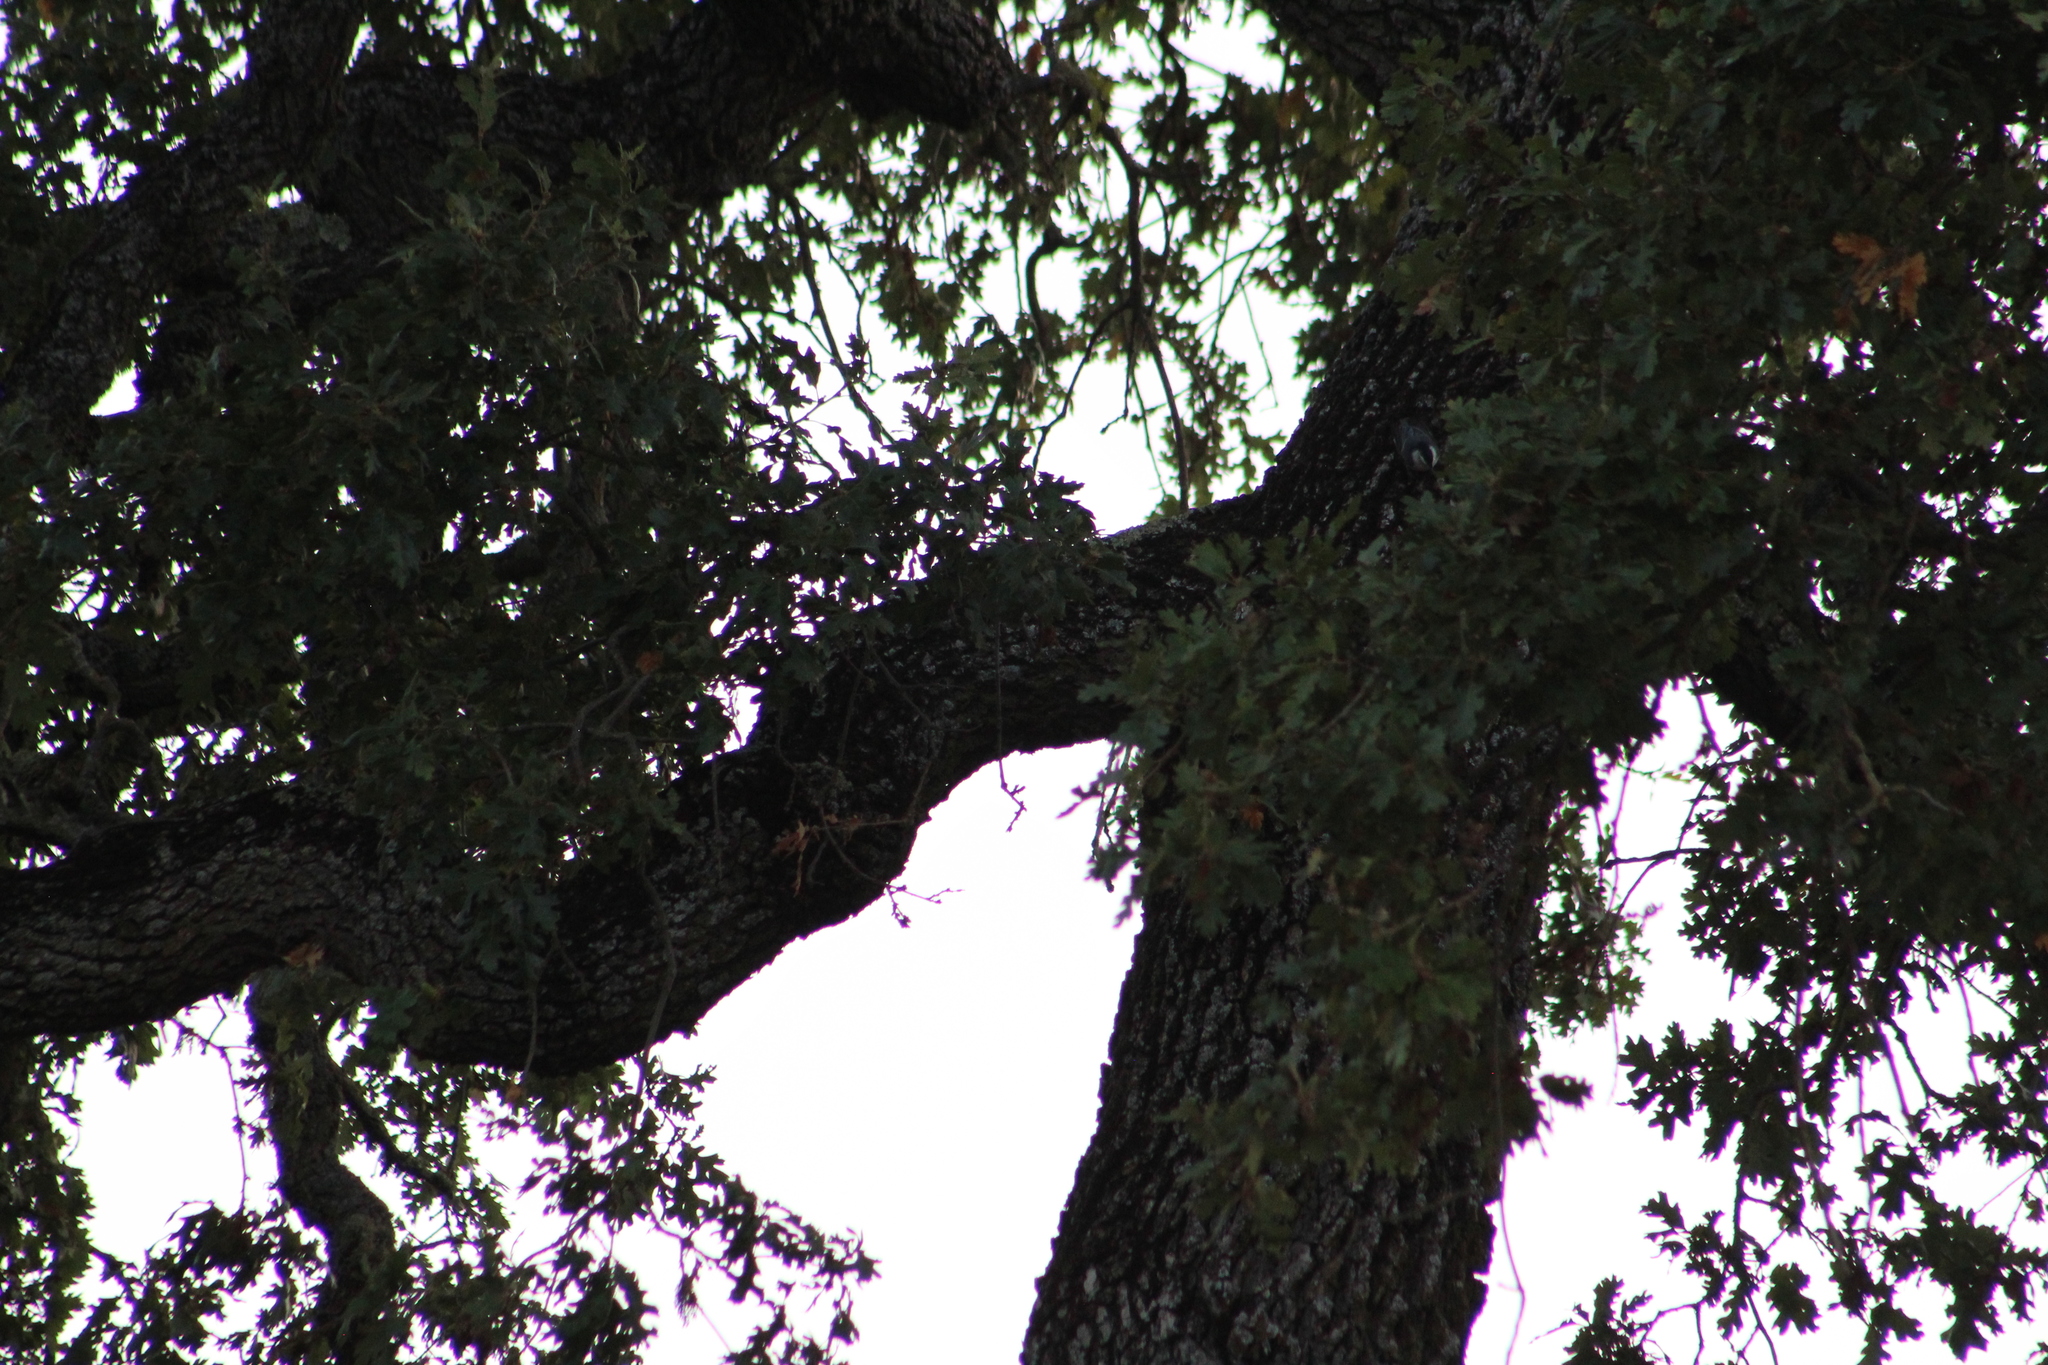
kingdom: Animalia
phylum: Chordata
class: Aves
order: Passeriformes
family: Sittidae
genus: Sitta
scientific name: Sitta carolinensis
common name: White-breasted nuthatch
